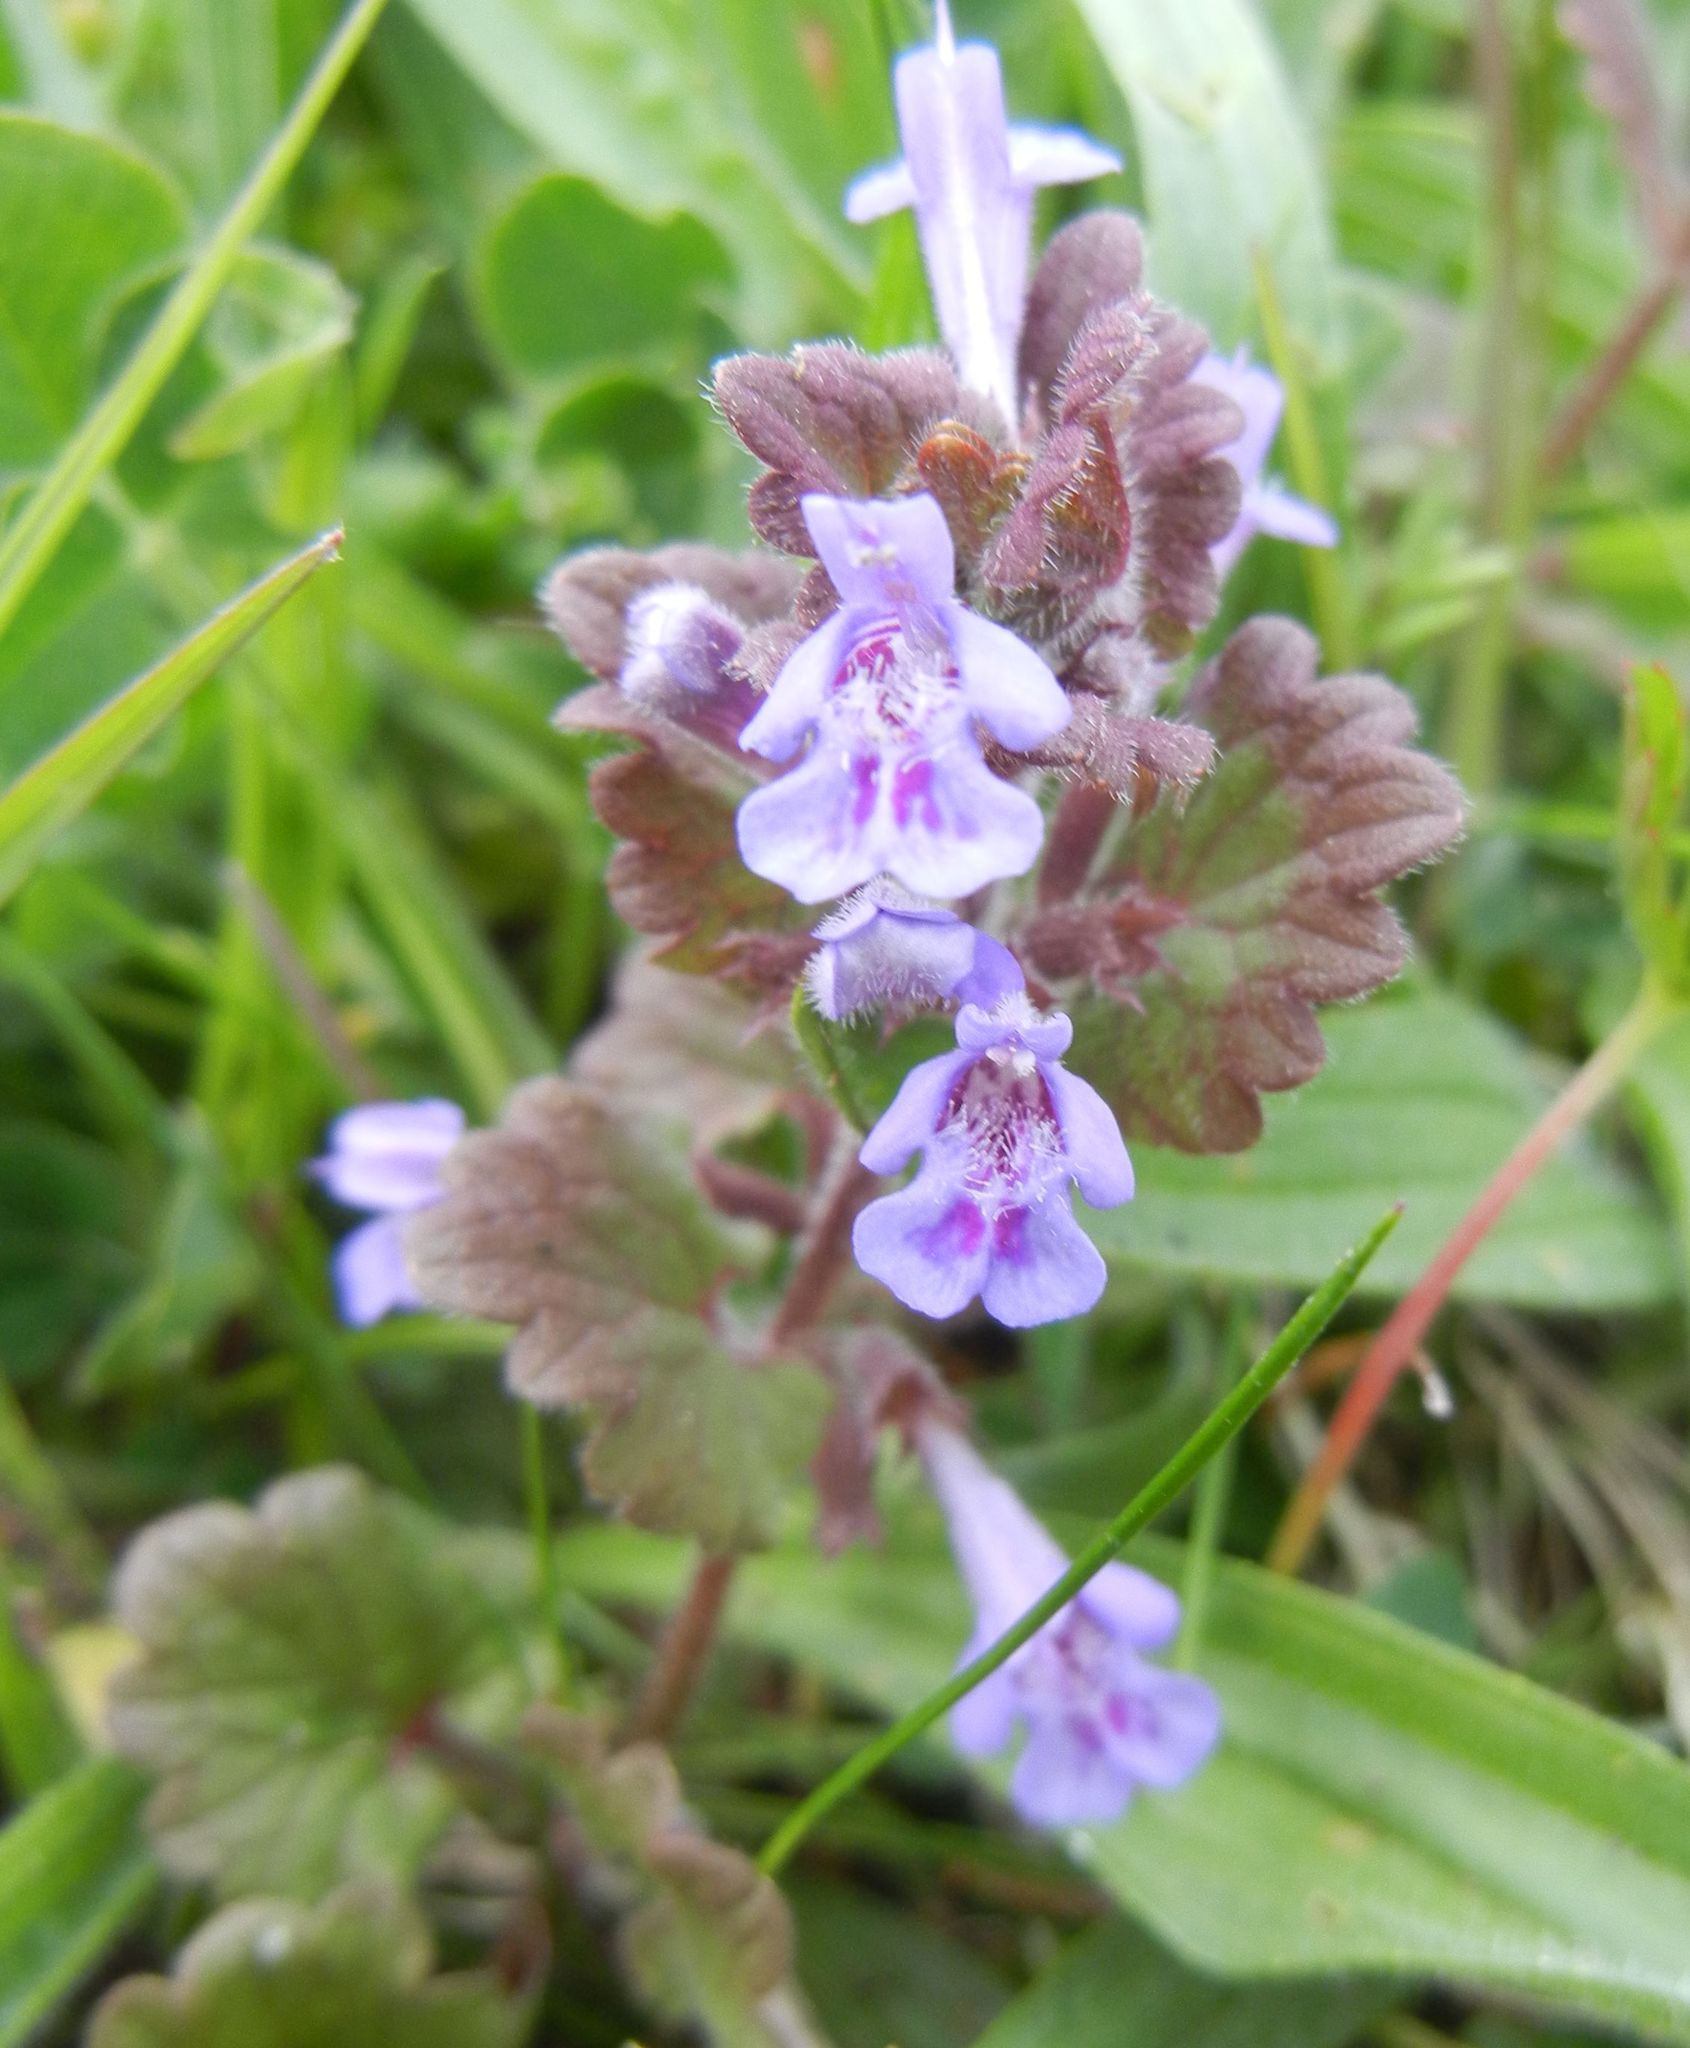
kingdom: Plantae
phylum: Tracheophyta
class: Magnoliopsida
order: Lamiales
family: Lamiaceae
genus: Glechoma
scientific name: Glechoma hederacea
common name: Ground ivy
